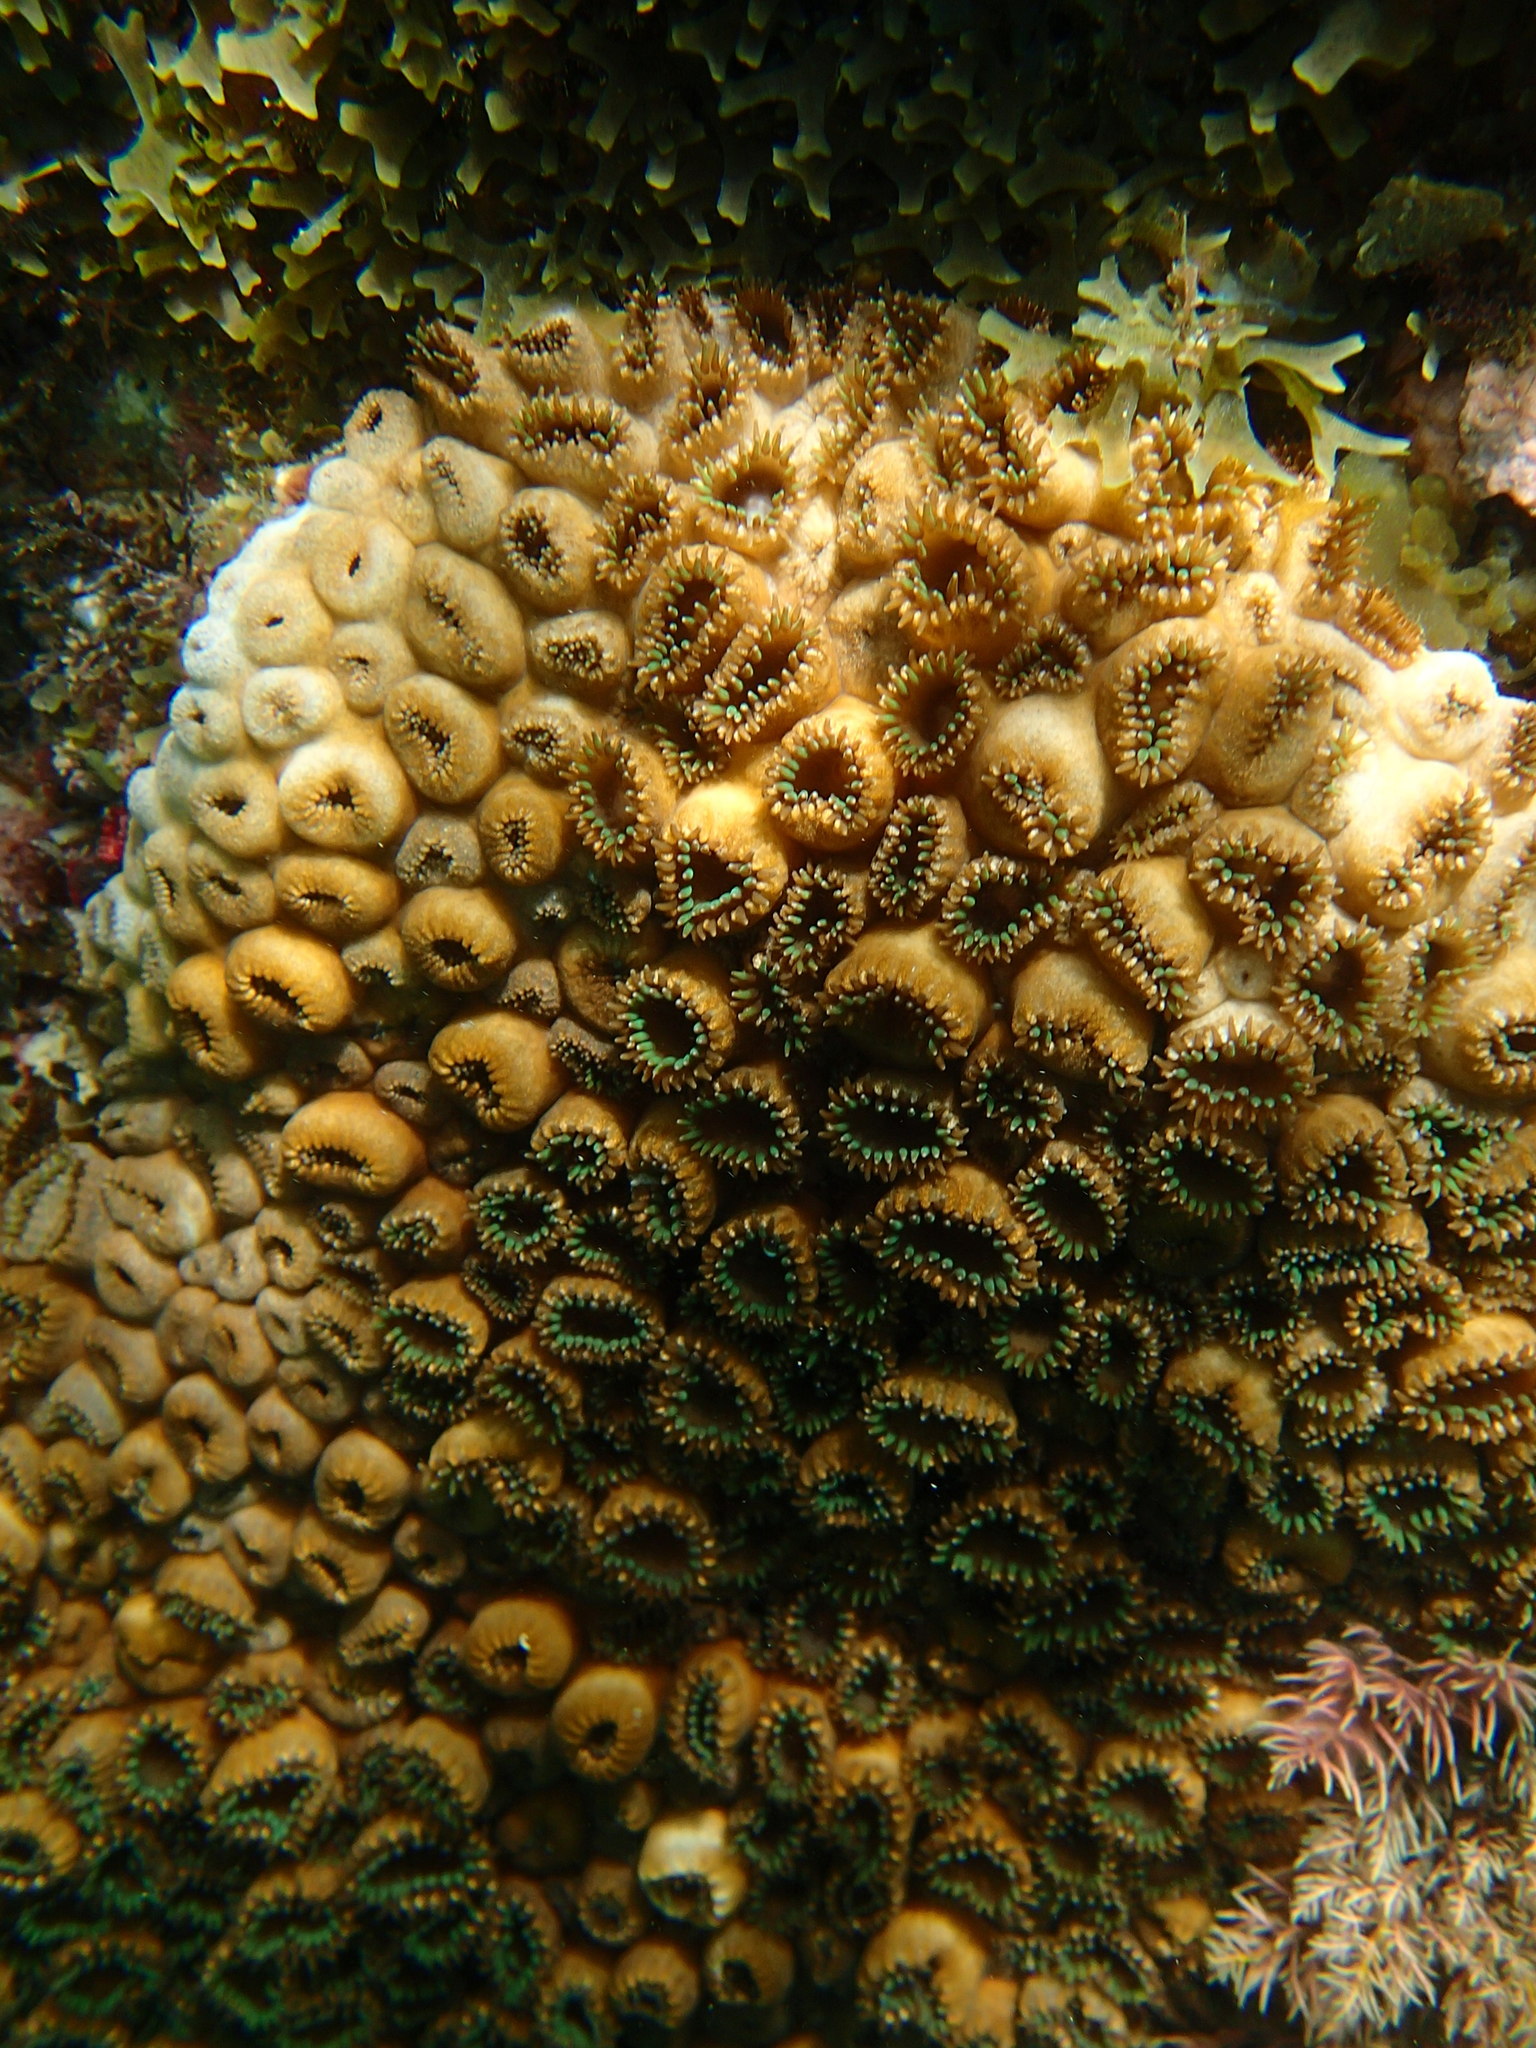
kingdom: Animalia
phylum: Cnidaria
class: Anthozoa
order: Zoantharia
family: Sphenopidae
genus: Palythoa
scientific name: Palythoa tuberculosa
